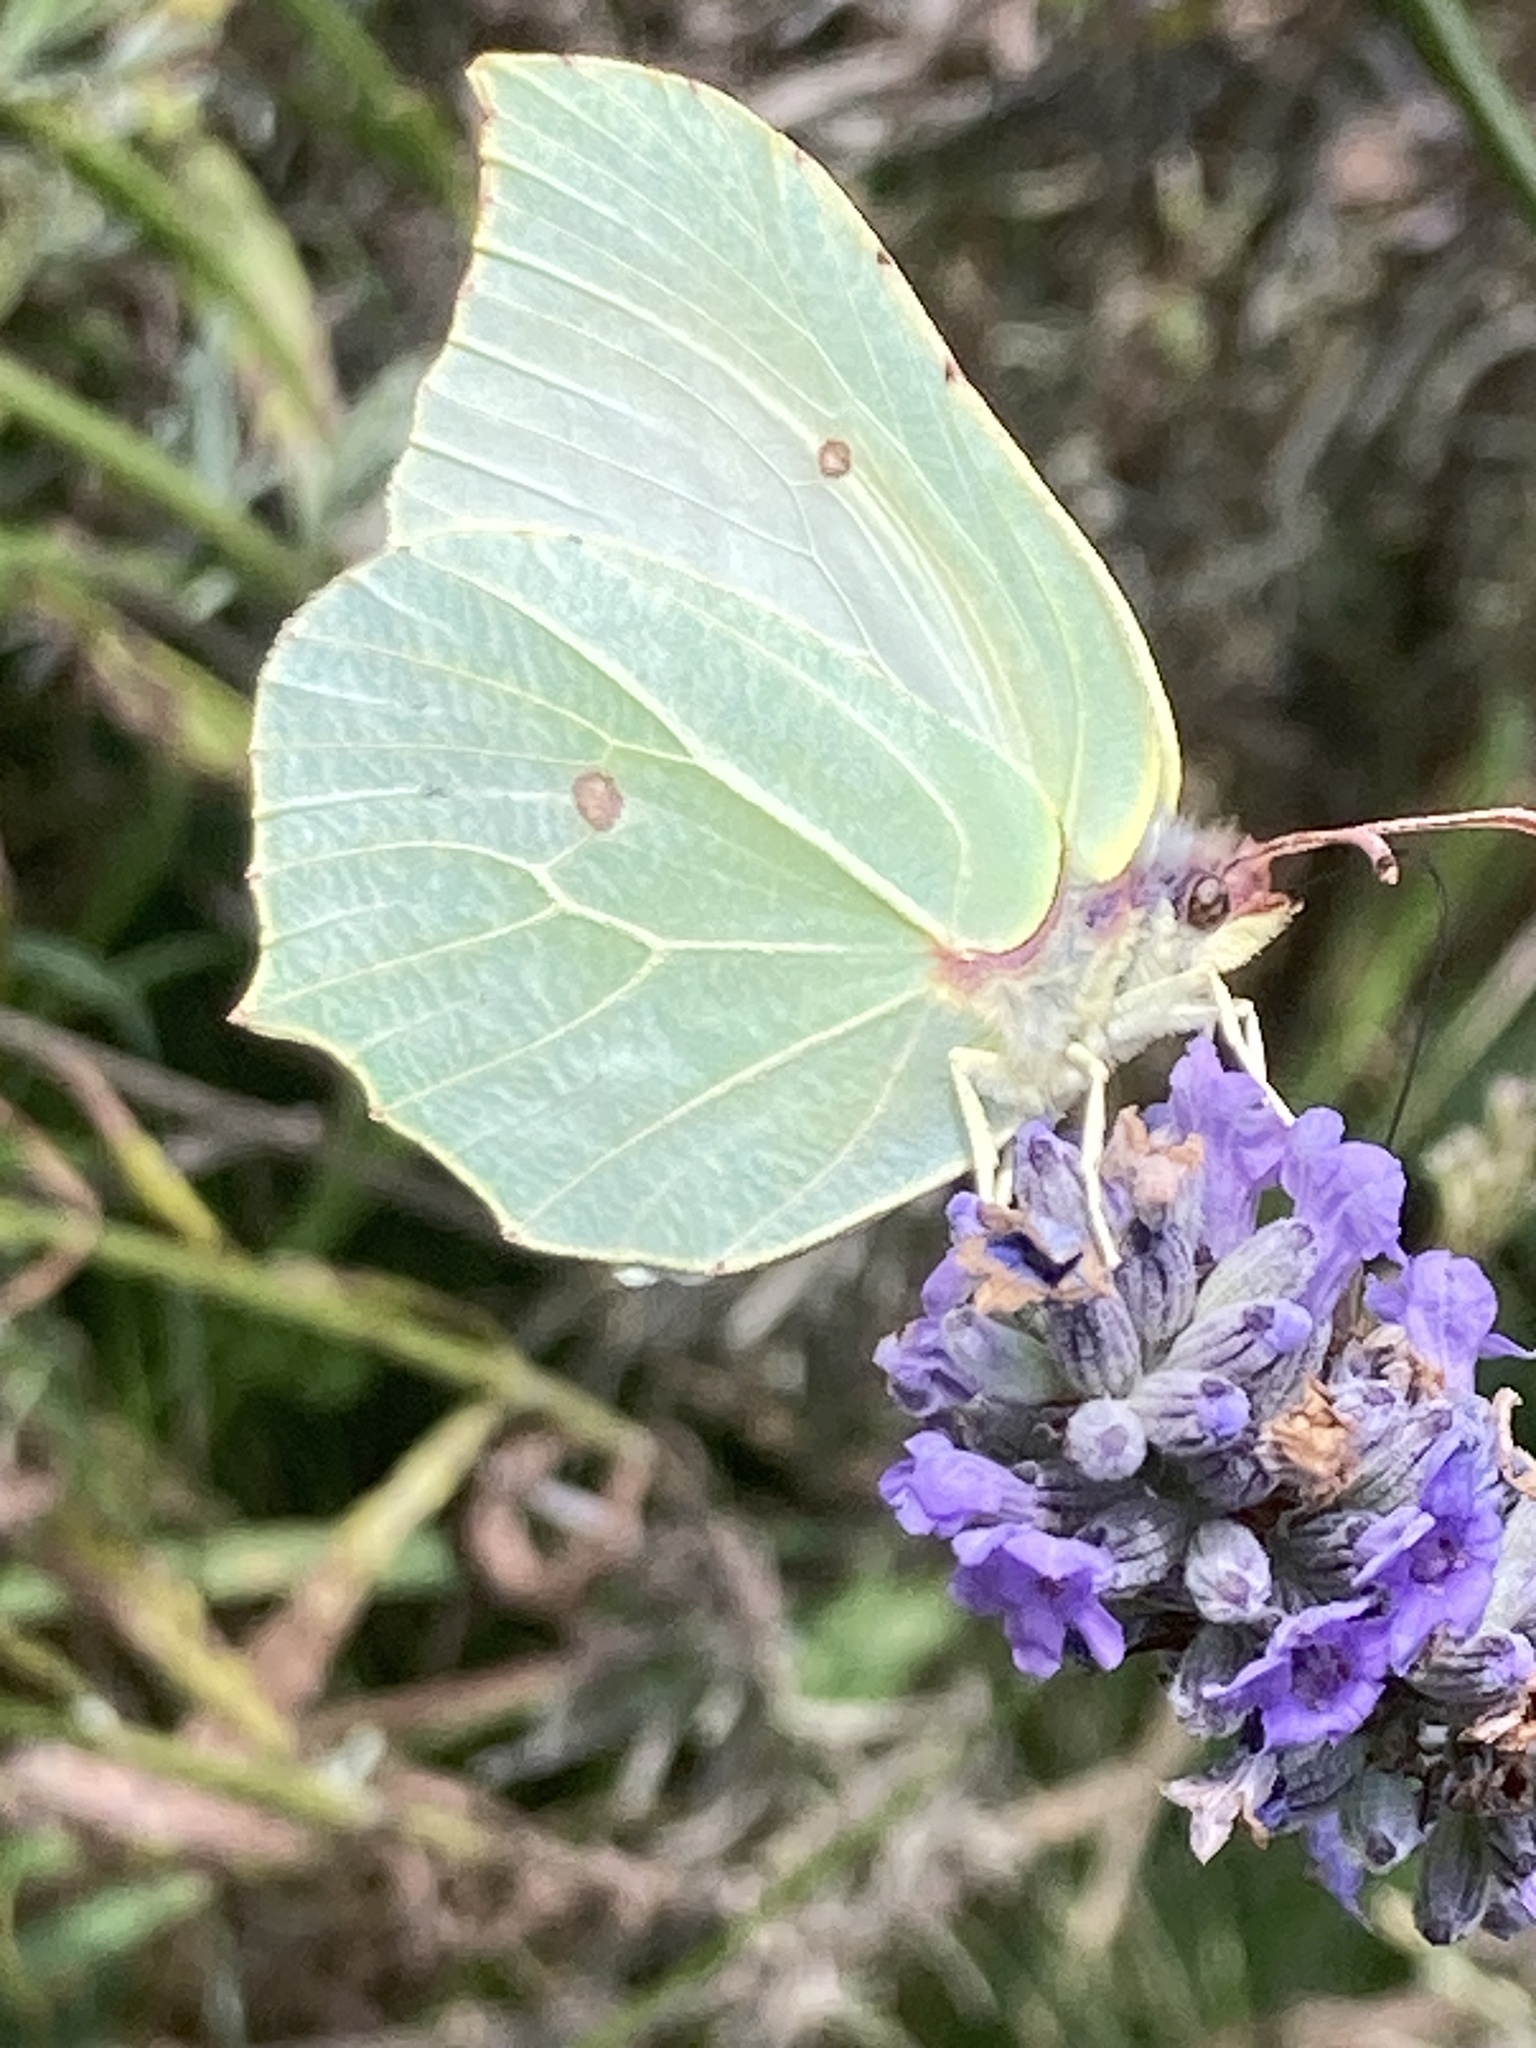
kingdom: Animalia
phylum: Arthropoda
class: Insecta
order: Lepidoptera
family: Pieridae
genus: Gonepteryx
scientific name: Gonepteryx rhamni
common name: Brimstone
